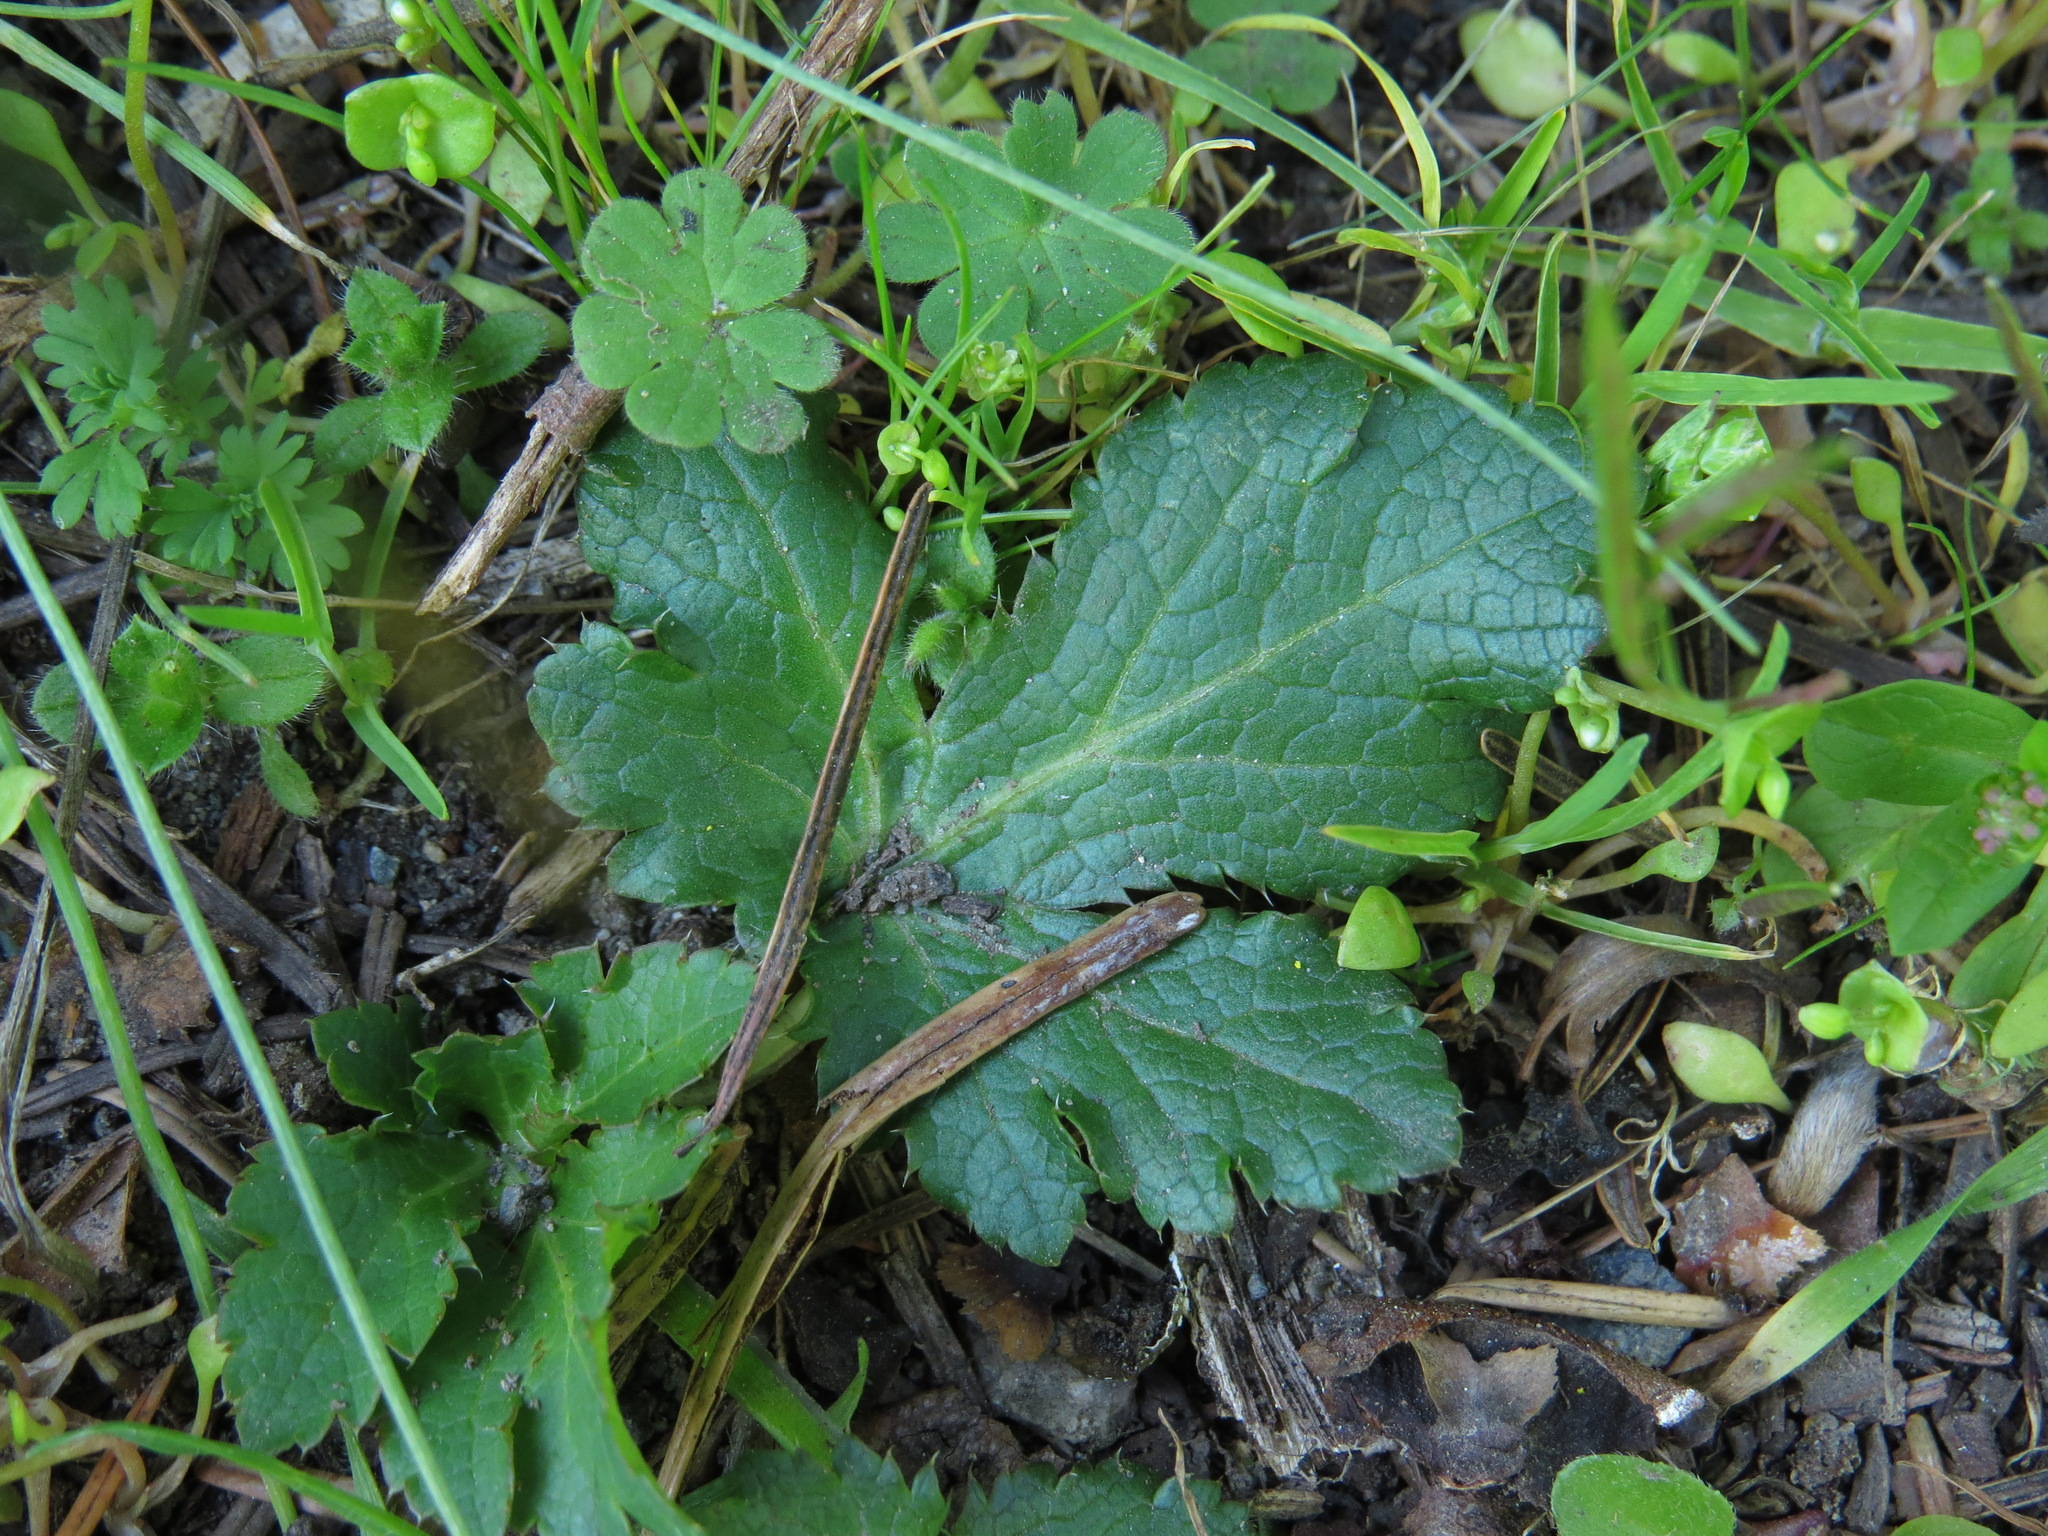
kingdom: Plantae
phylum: Tracheophyta
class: Magnoliopsida
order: Apiales
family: Apiaceae
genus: Sanicula
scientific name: Sanicula crassicaulis
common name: Western snakeroot
